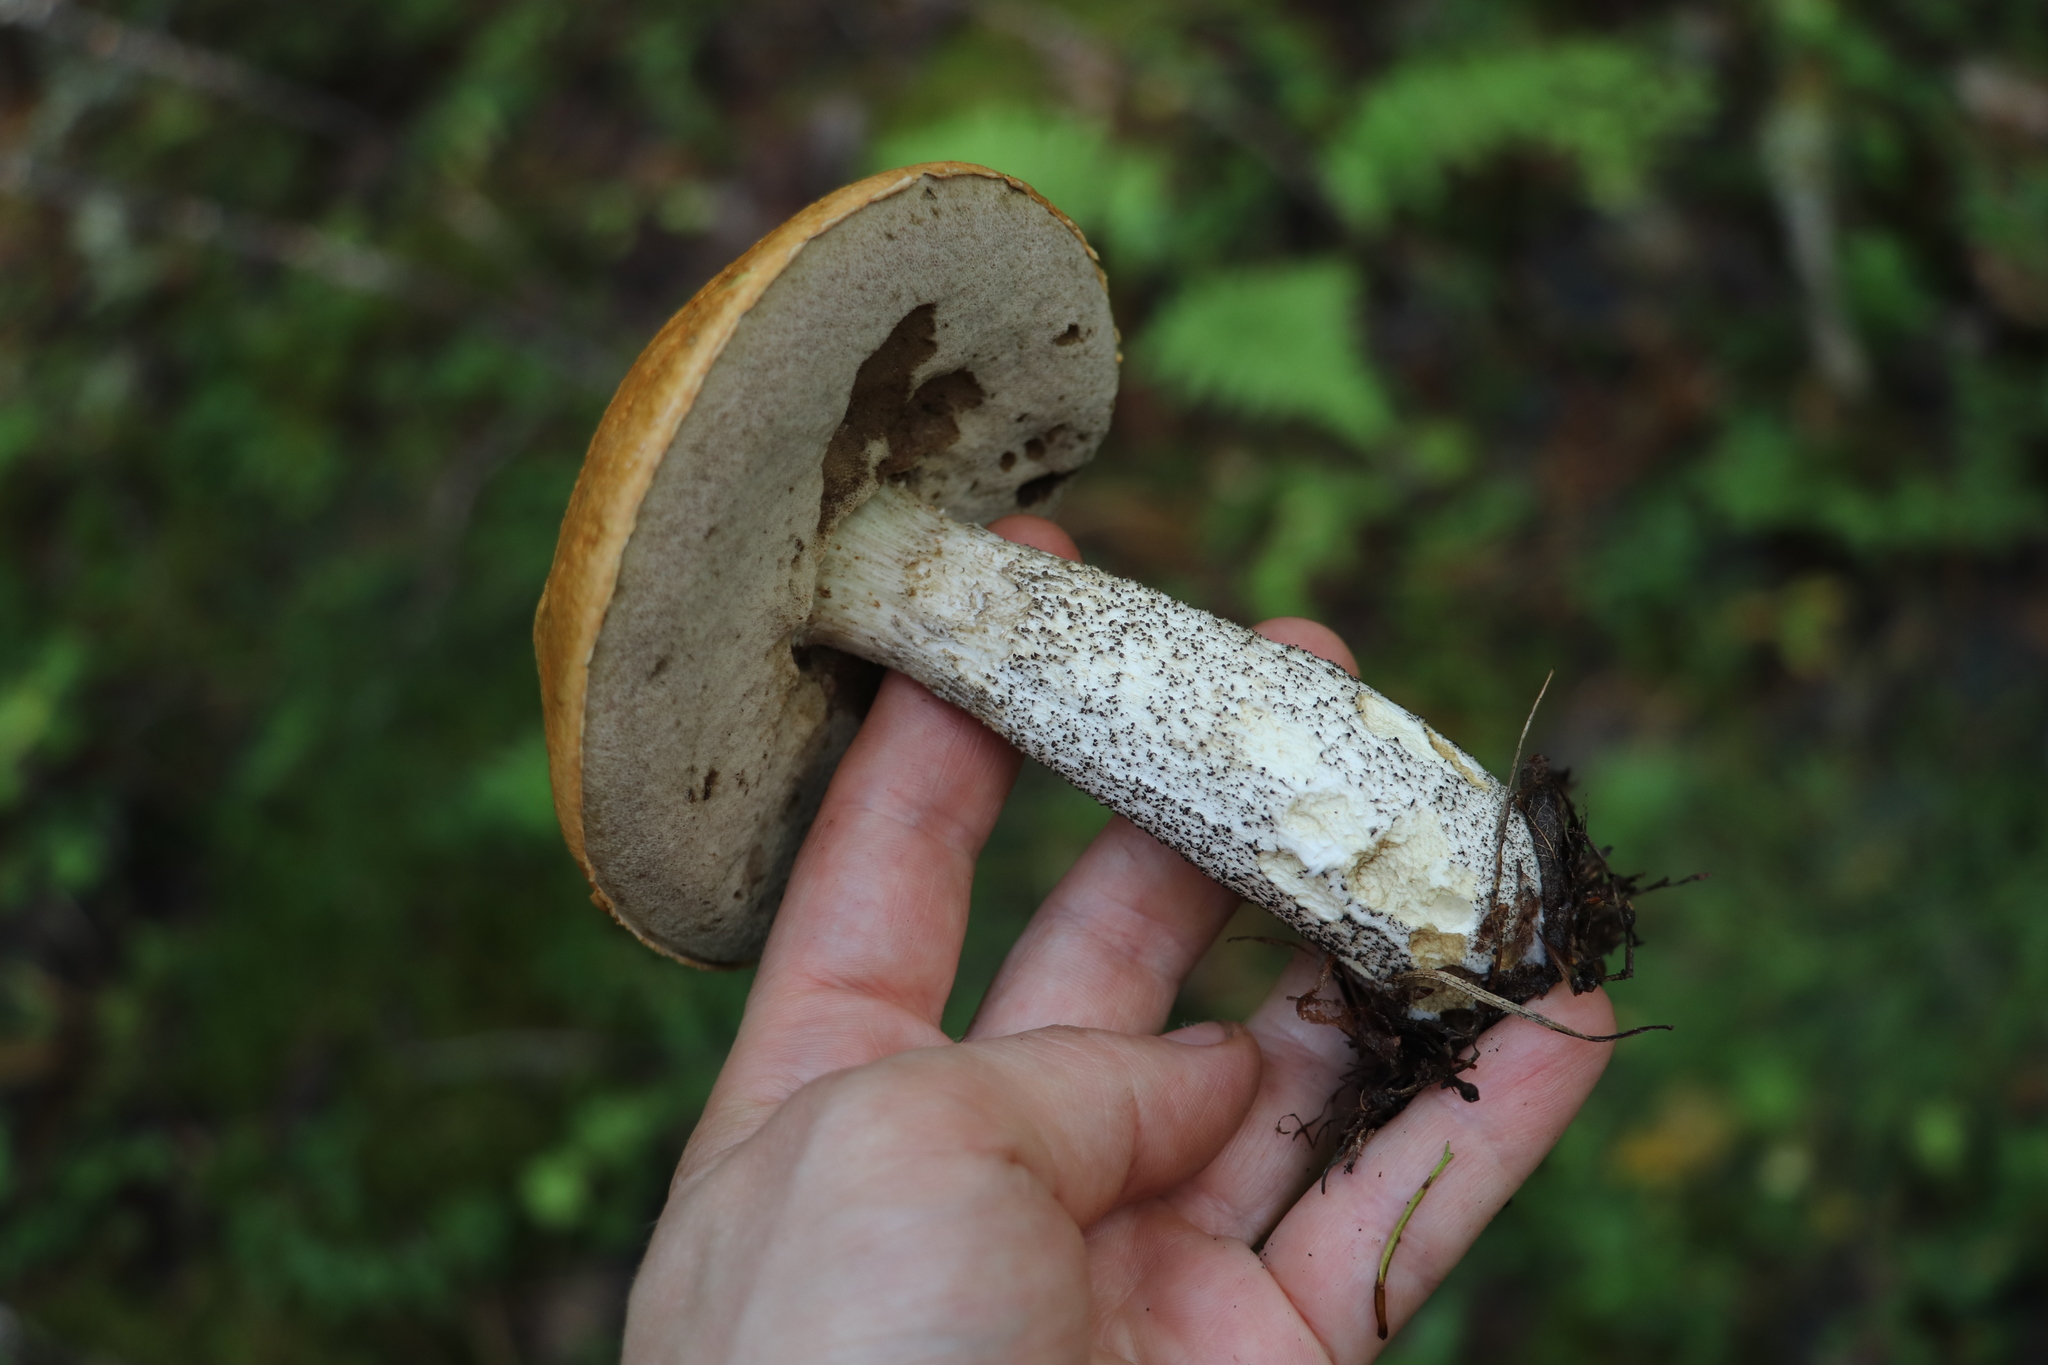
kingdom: Fungi
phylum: Basidiomycota
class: Agaricomycetes
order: Boletales
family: Boletaceae
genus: Leccinum
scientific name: Leccinum versipelle
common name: Orange birch bolete
